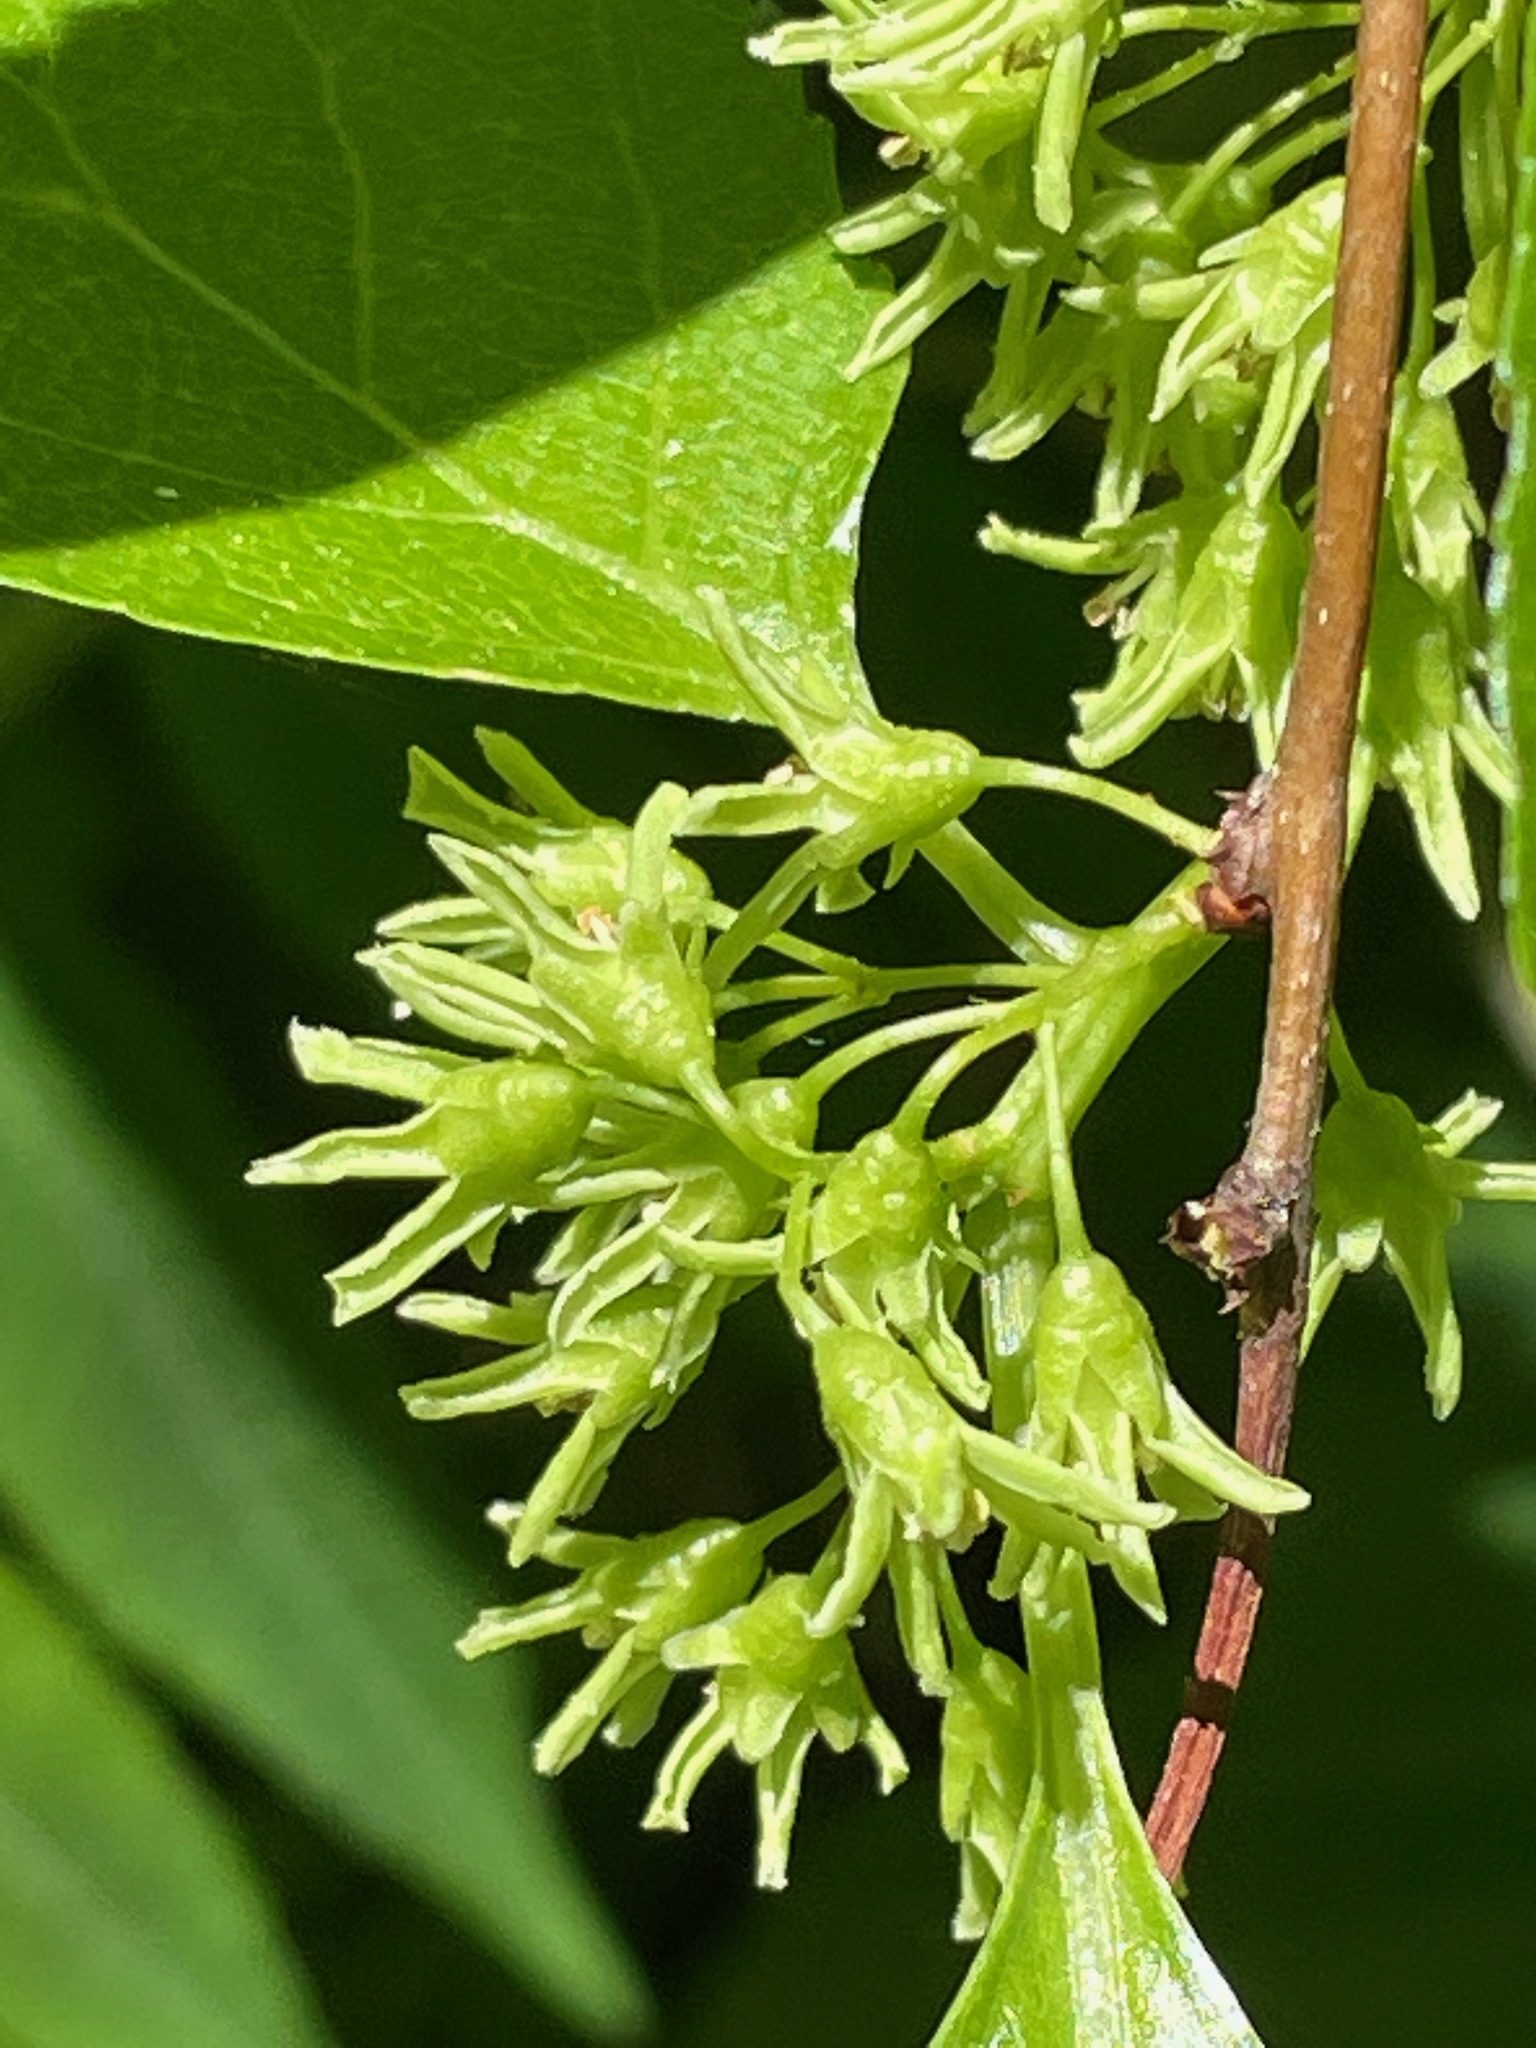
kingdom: Plantae
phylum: Tracheophyta
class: Magnoliopsida
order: Celastrales
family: Celastraceae
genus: Celastrus
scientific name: Celastrus orbiculatus
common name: Oriental bittersweet
